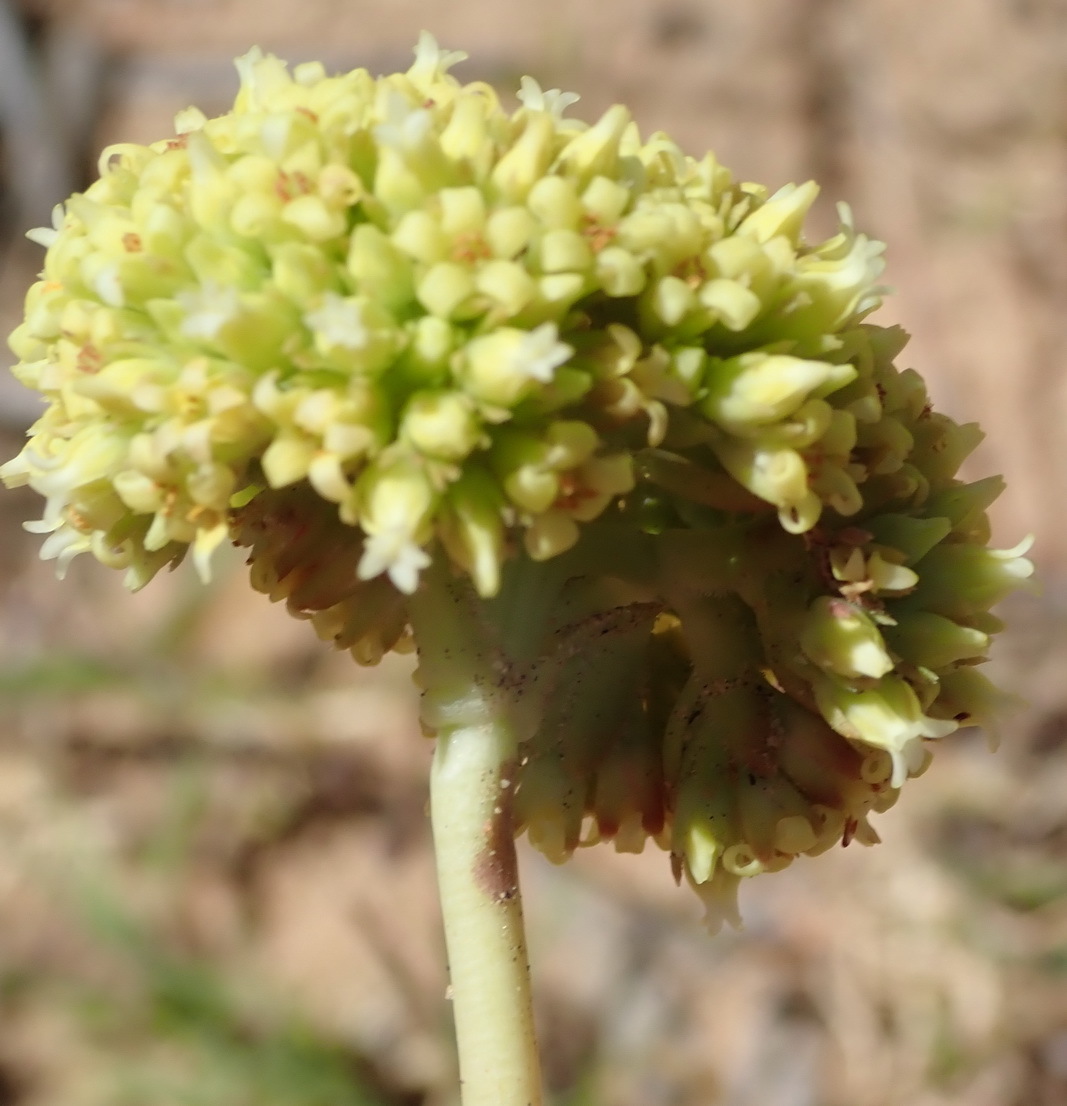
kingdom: Plantae
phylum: Tracheophyta
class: Magnoliopsida
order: Saxifragales
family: Crassulaceae
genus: Crassula
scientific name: Crassula ciliata
